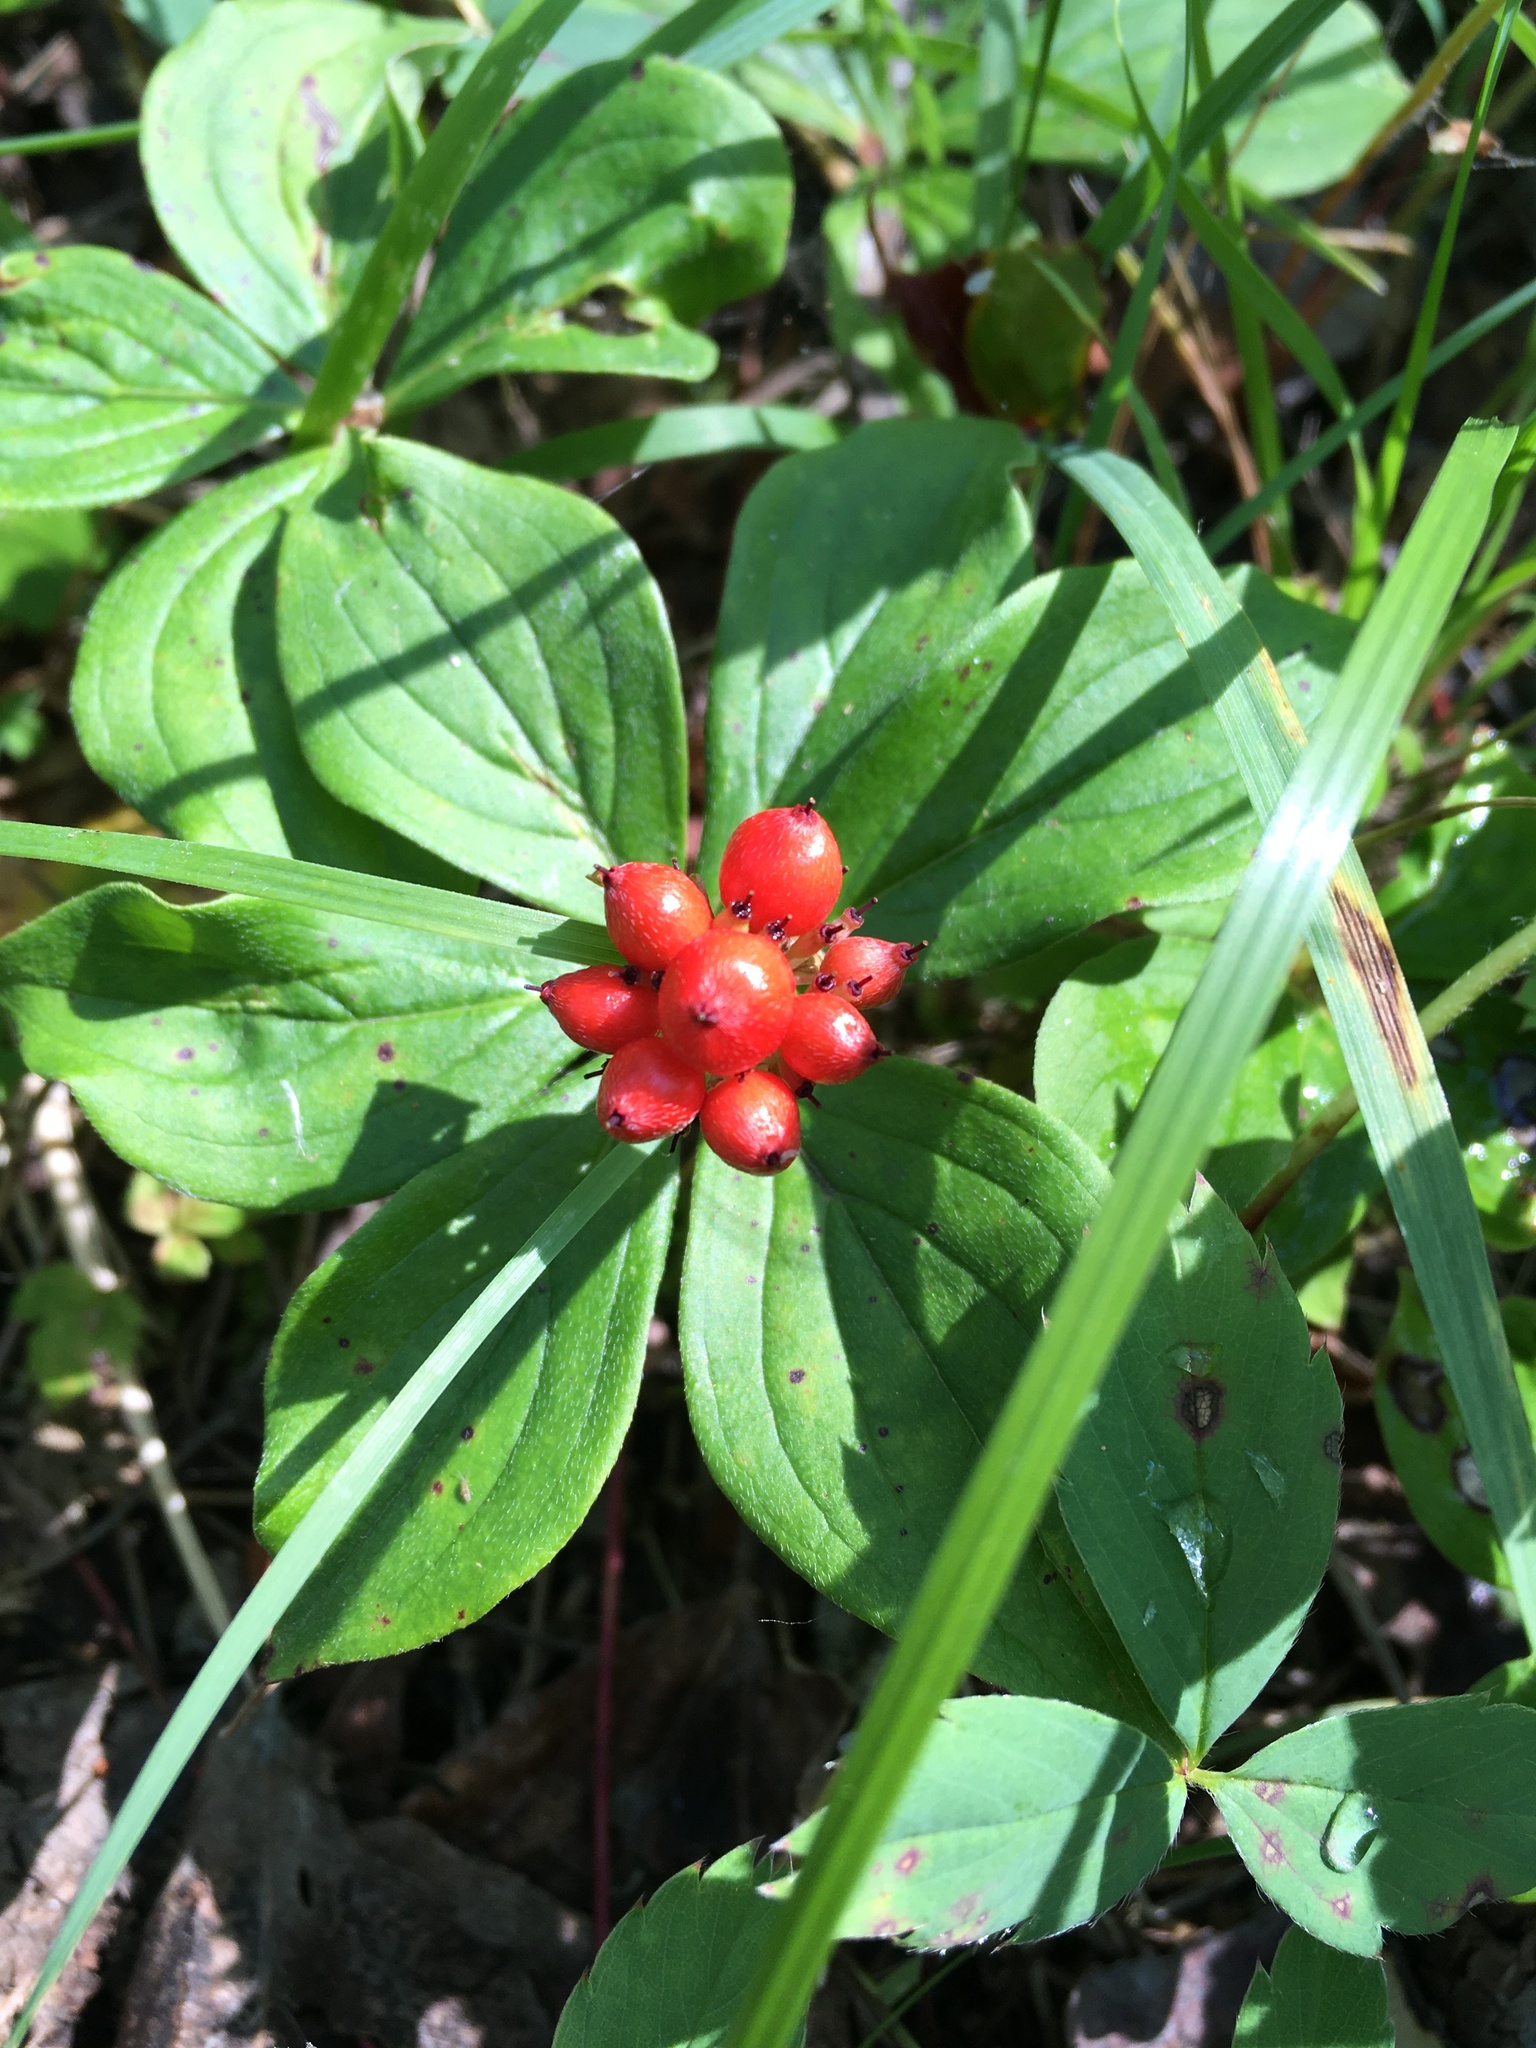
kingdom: Plantae
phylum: Tracheophyta
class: Magnoliopsida
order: Cornales
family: Cornaceae
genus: Cornus
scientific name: Cornus canadensis
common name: Creeping dogwood
